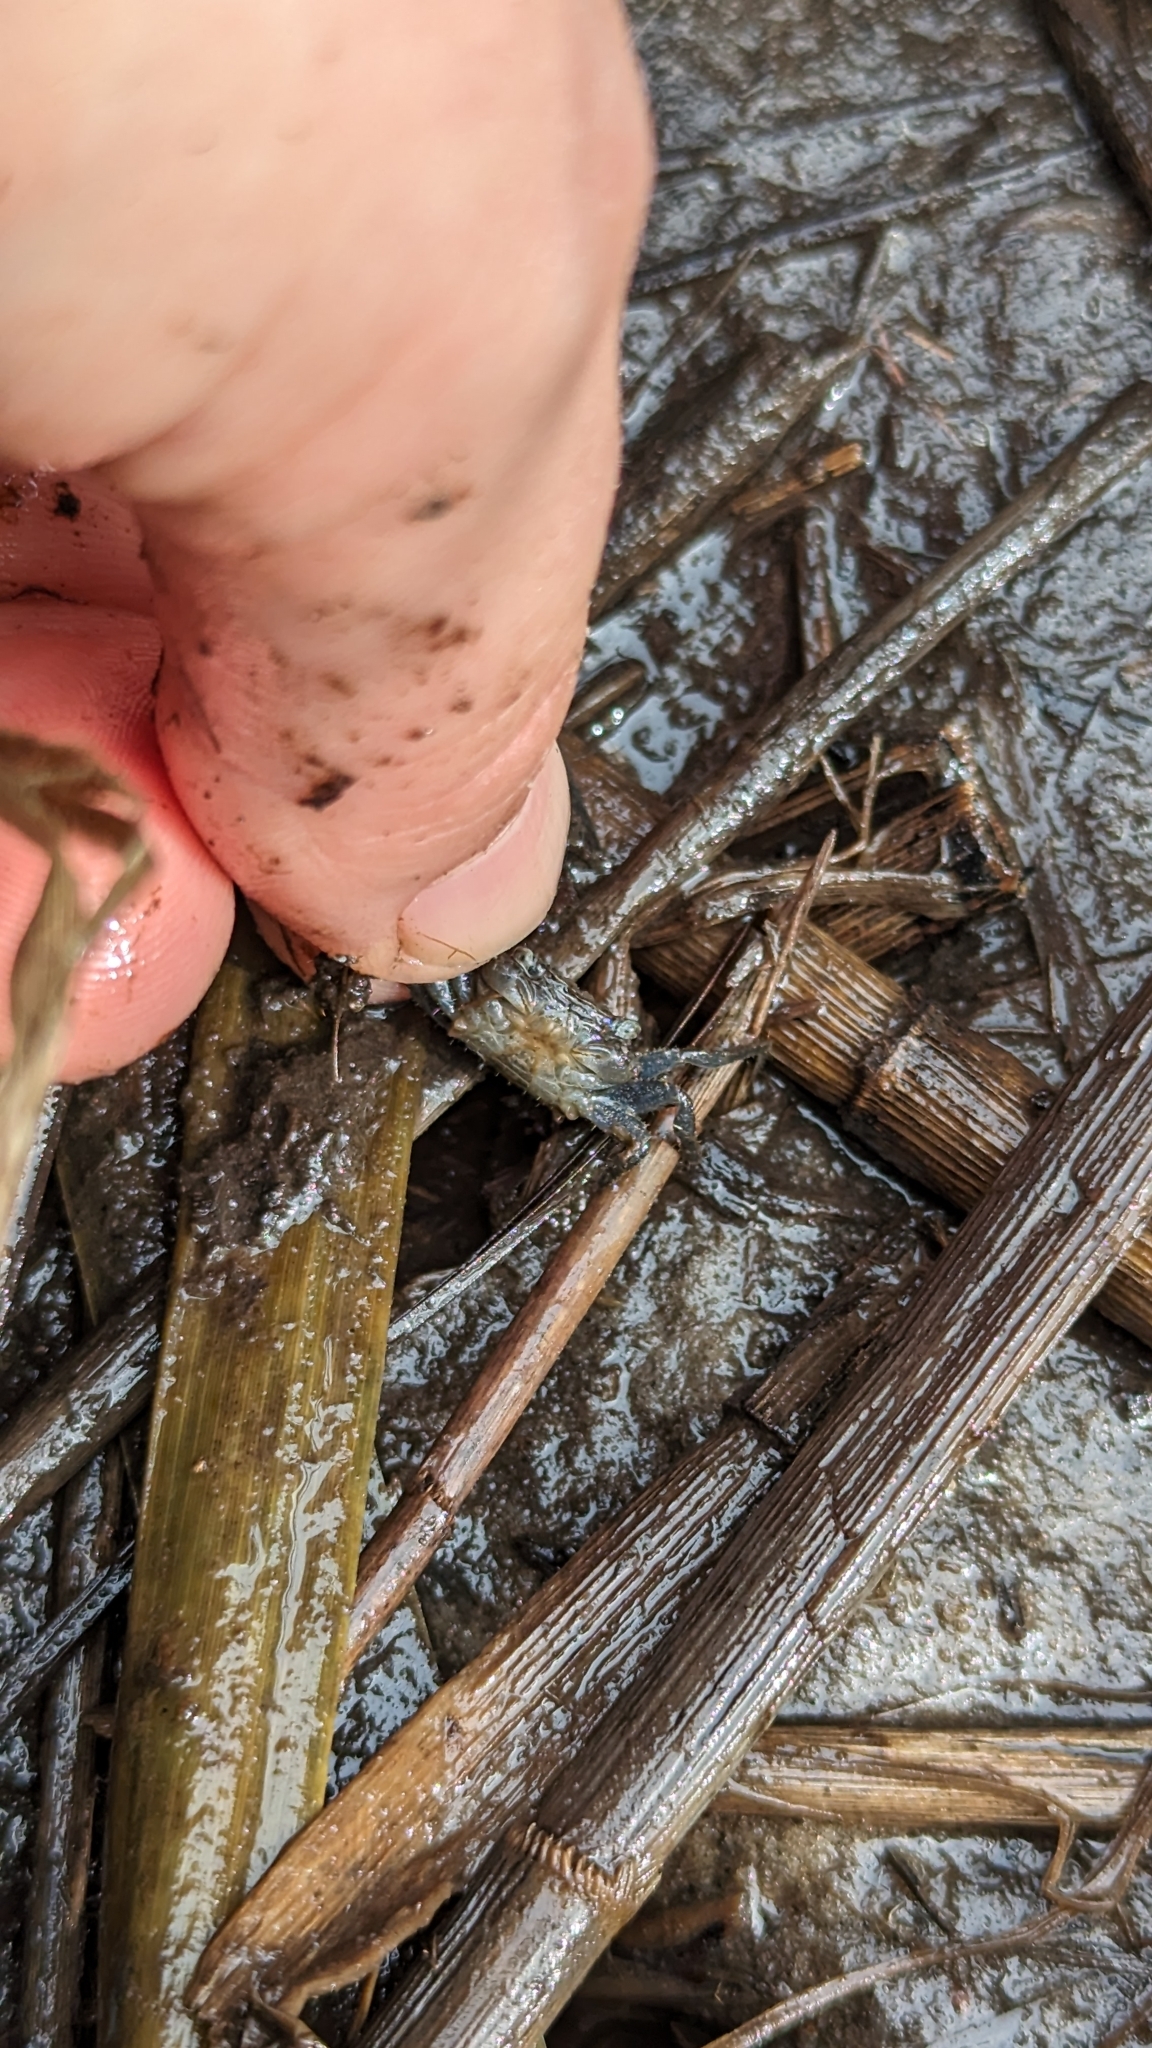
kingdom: Animalia
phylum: Arthropoda
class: Malacostraca
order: Decapoda
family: Sesarmidae
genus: Armases
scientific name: Armases cinereum
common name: Squareback marsh crab
